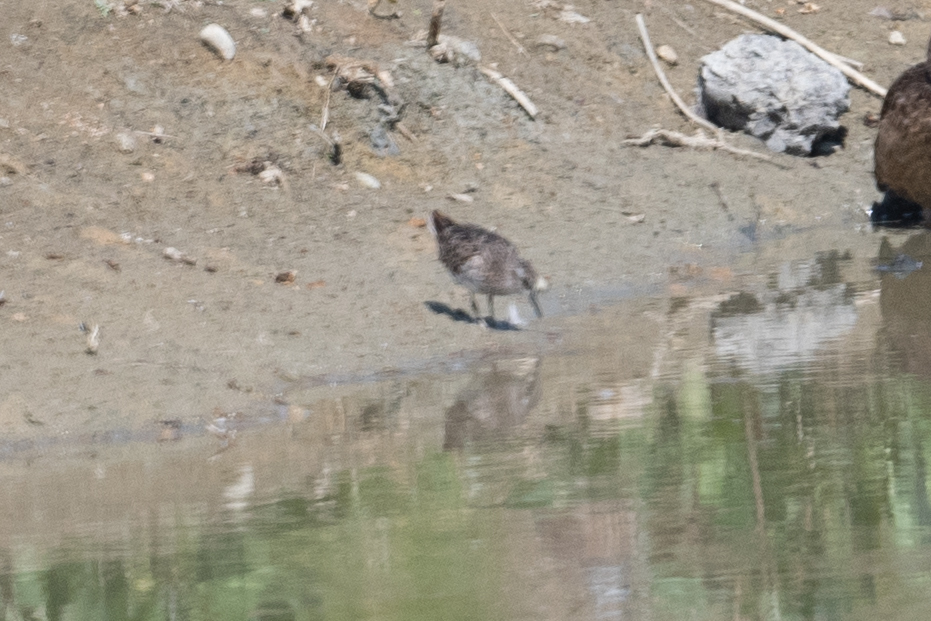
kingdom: Animalia
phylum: Chordata
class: Aves
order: Charadriiformes
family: Scolopacidae
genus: Calidris
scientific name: Calidris minutilla
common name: Least sandpiper
